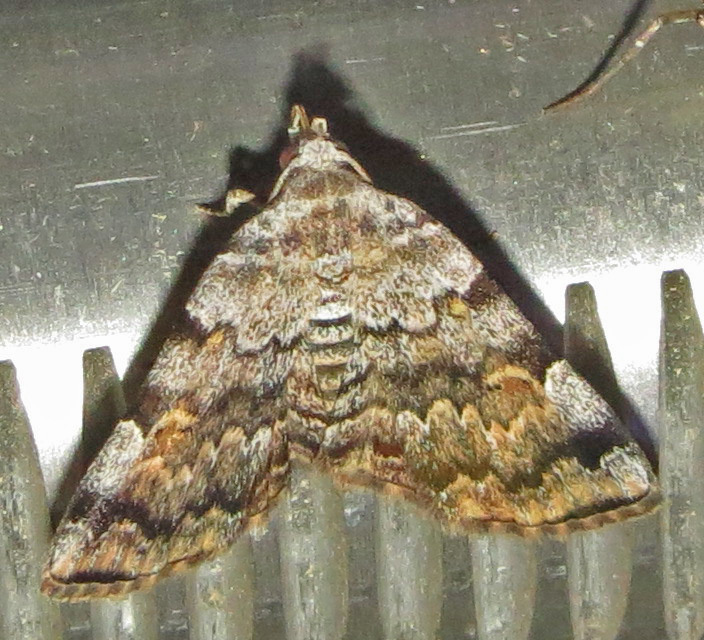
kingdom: Animalia
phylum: Arthropoda
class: Insecta
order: Lepidoptera
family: Erebidae
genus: Idia
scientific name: Idia americalis
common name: American idia moth
